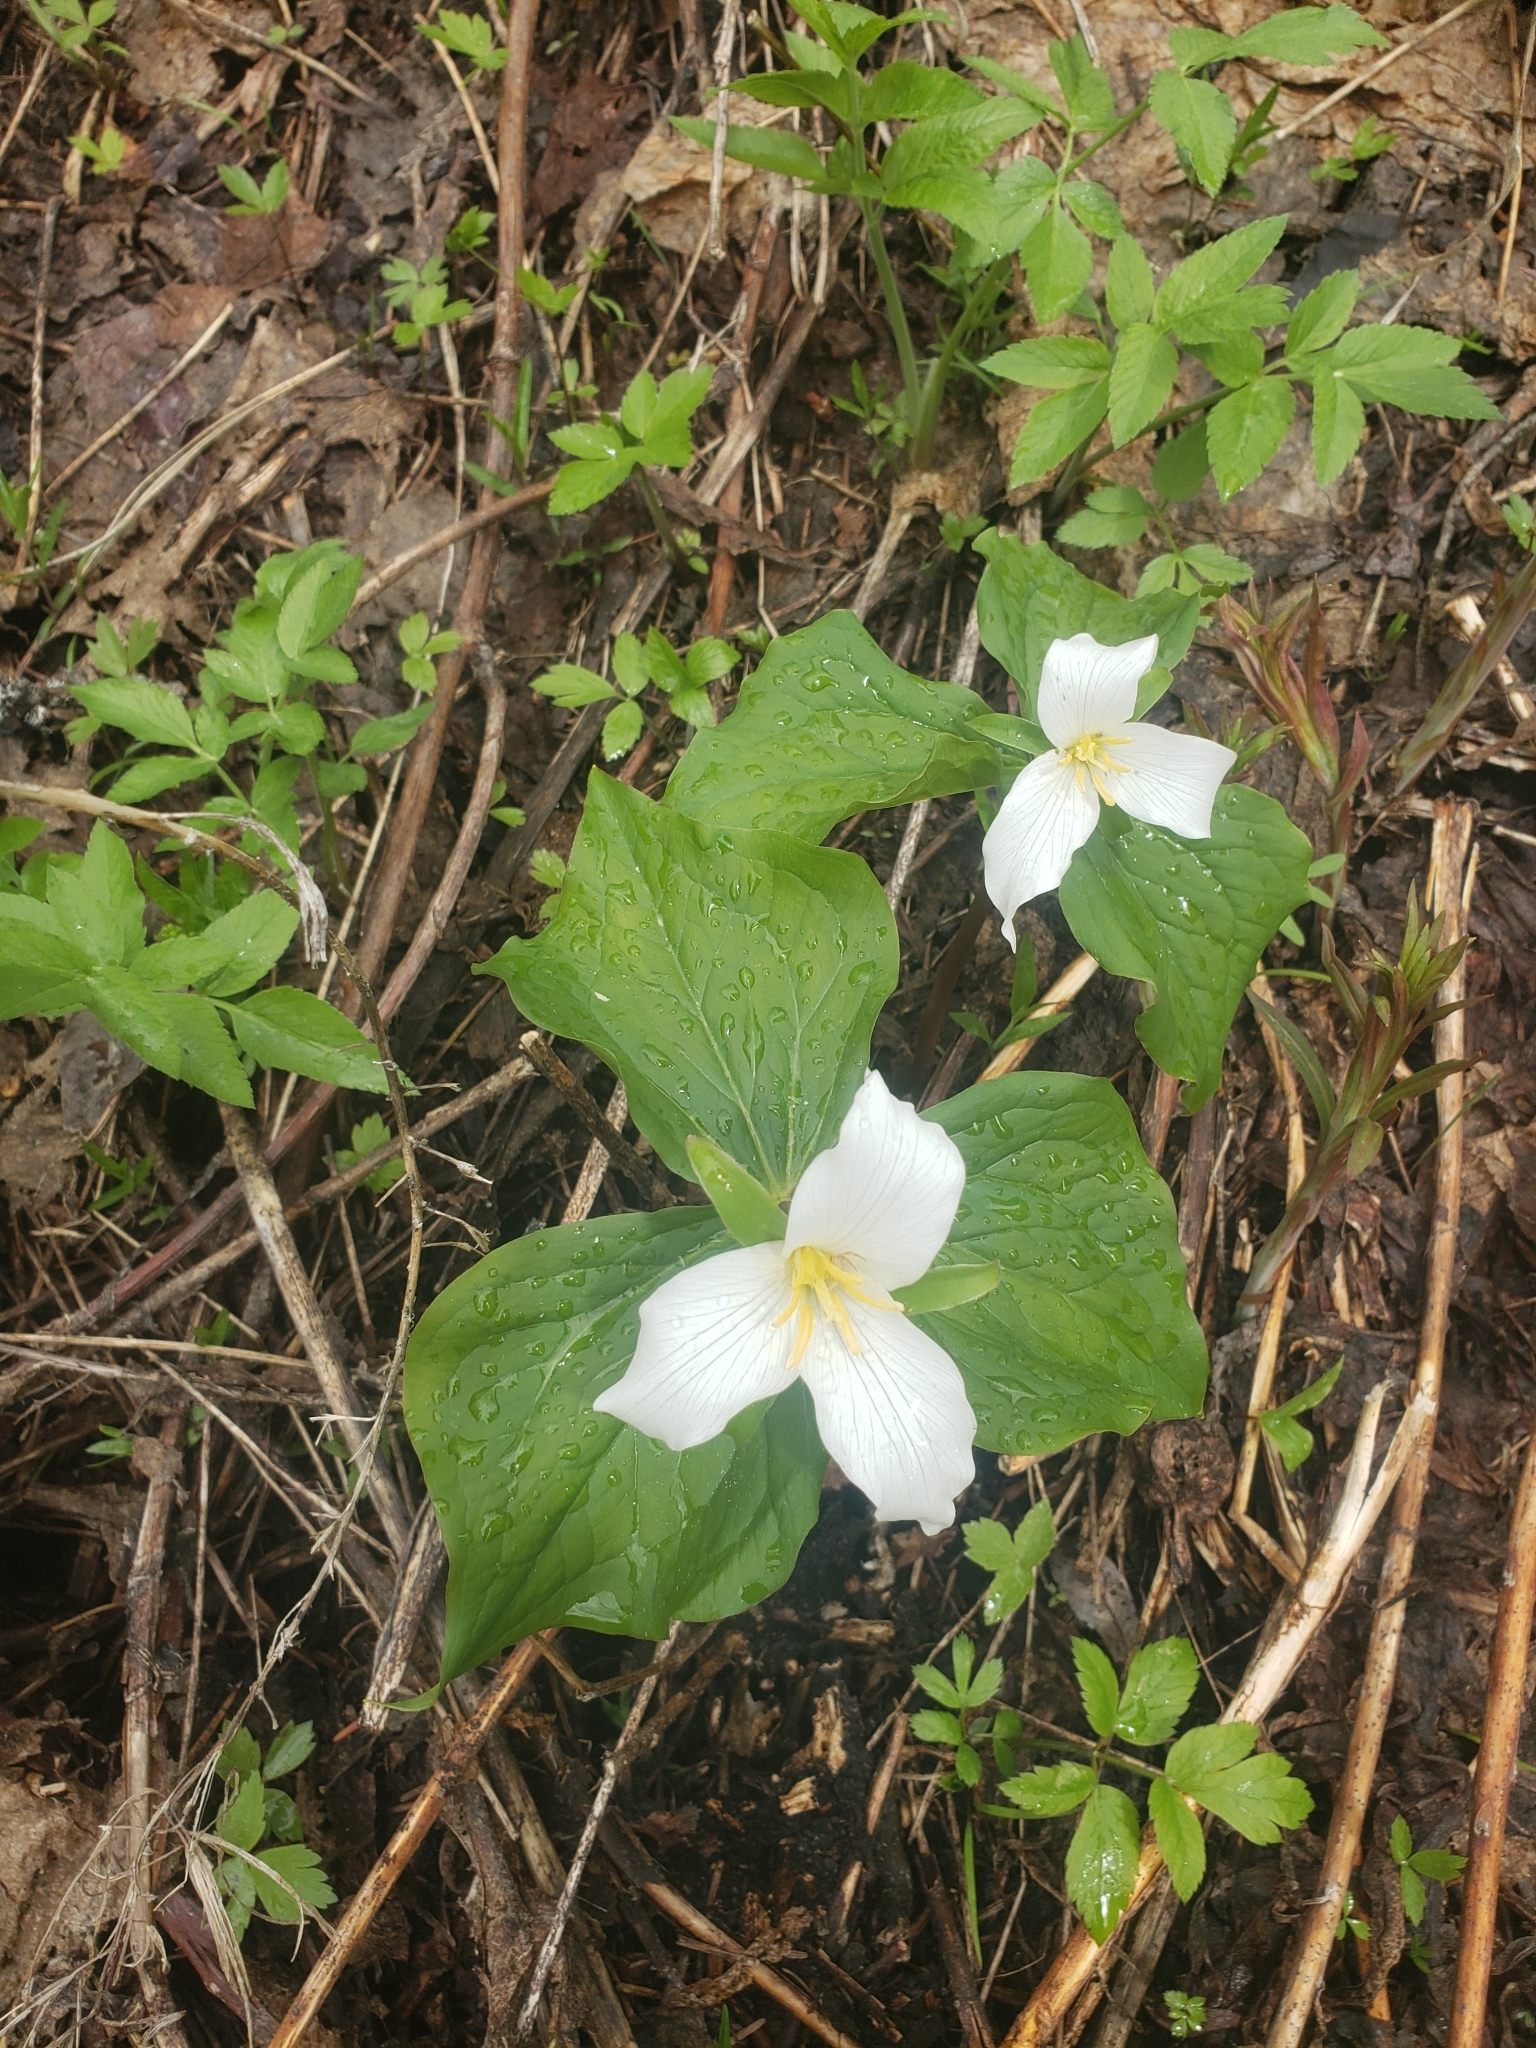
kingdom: Plantae
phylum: Tracheophyta
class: Liliopsida
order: Liliales
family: Melanthiaceae
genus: Trillium
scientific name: Trillium ovatum
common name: Pacific trillium
